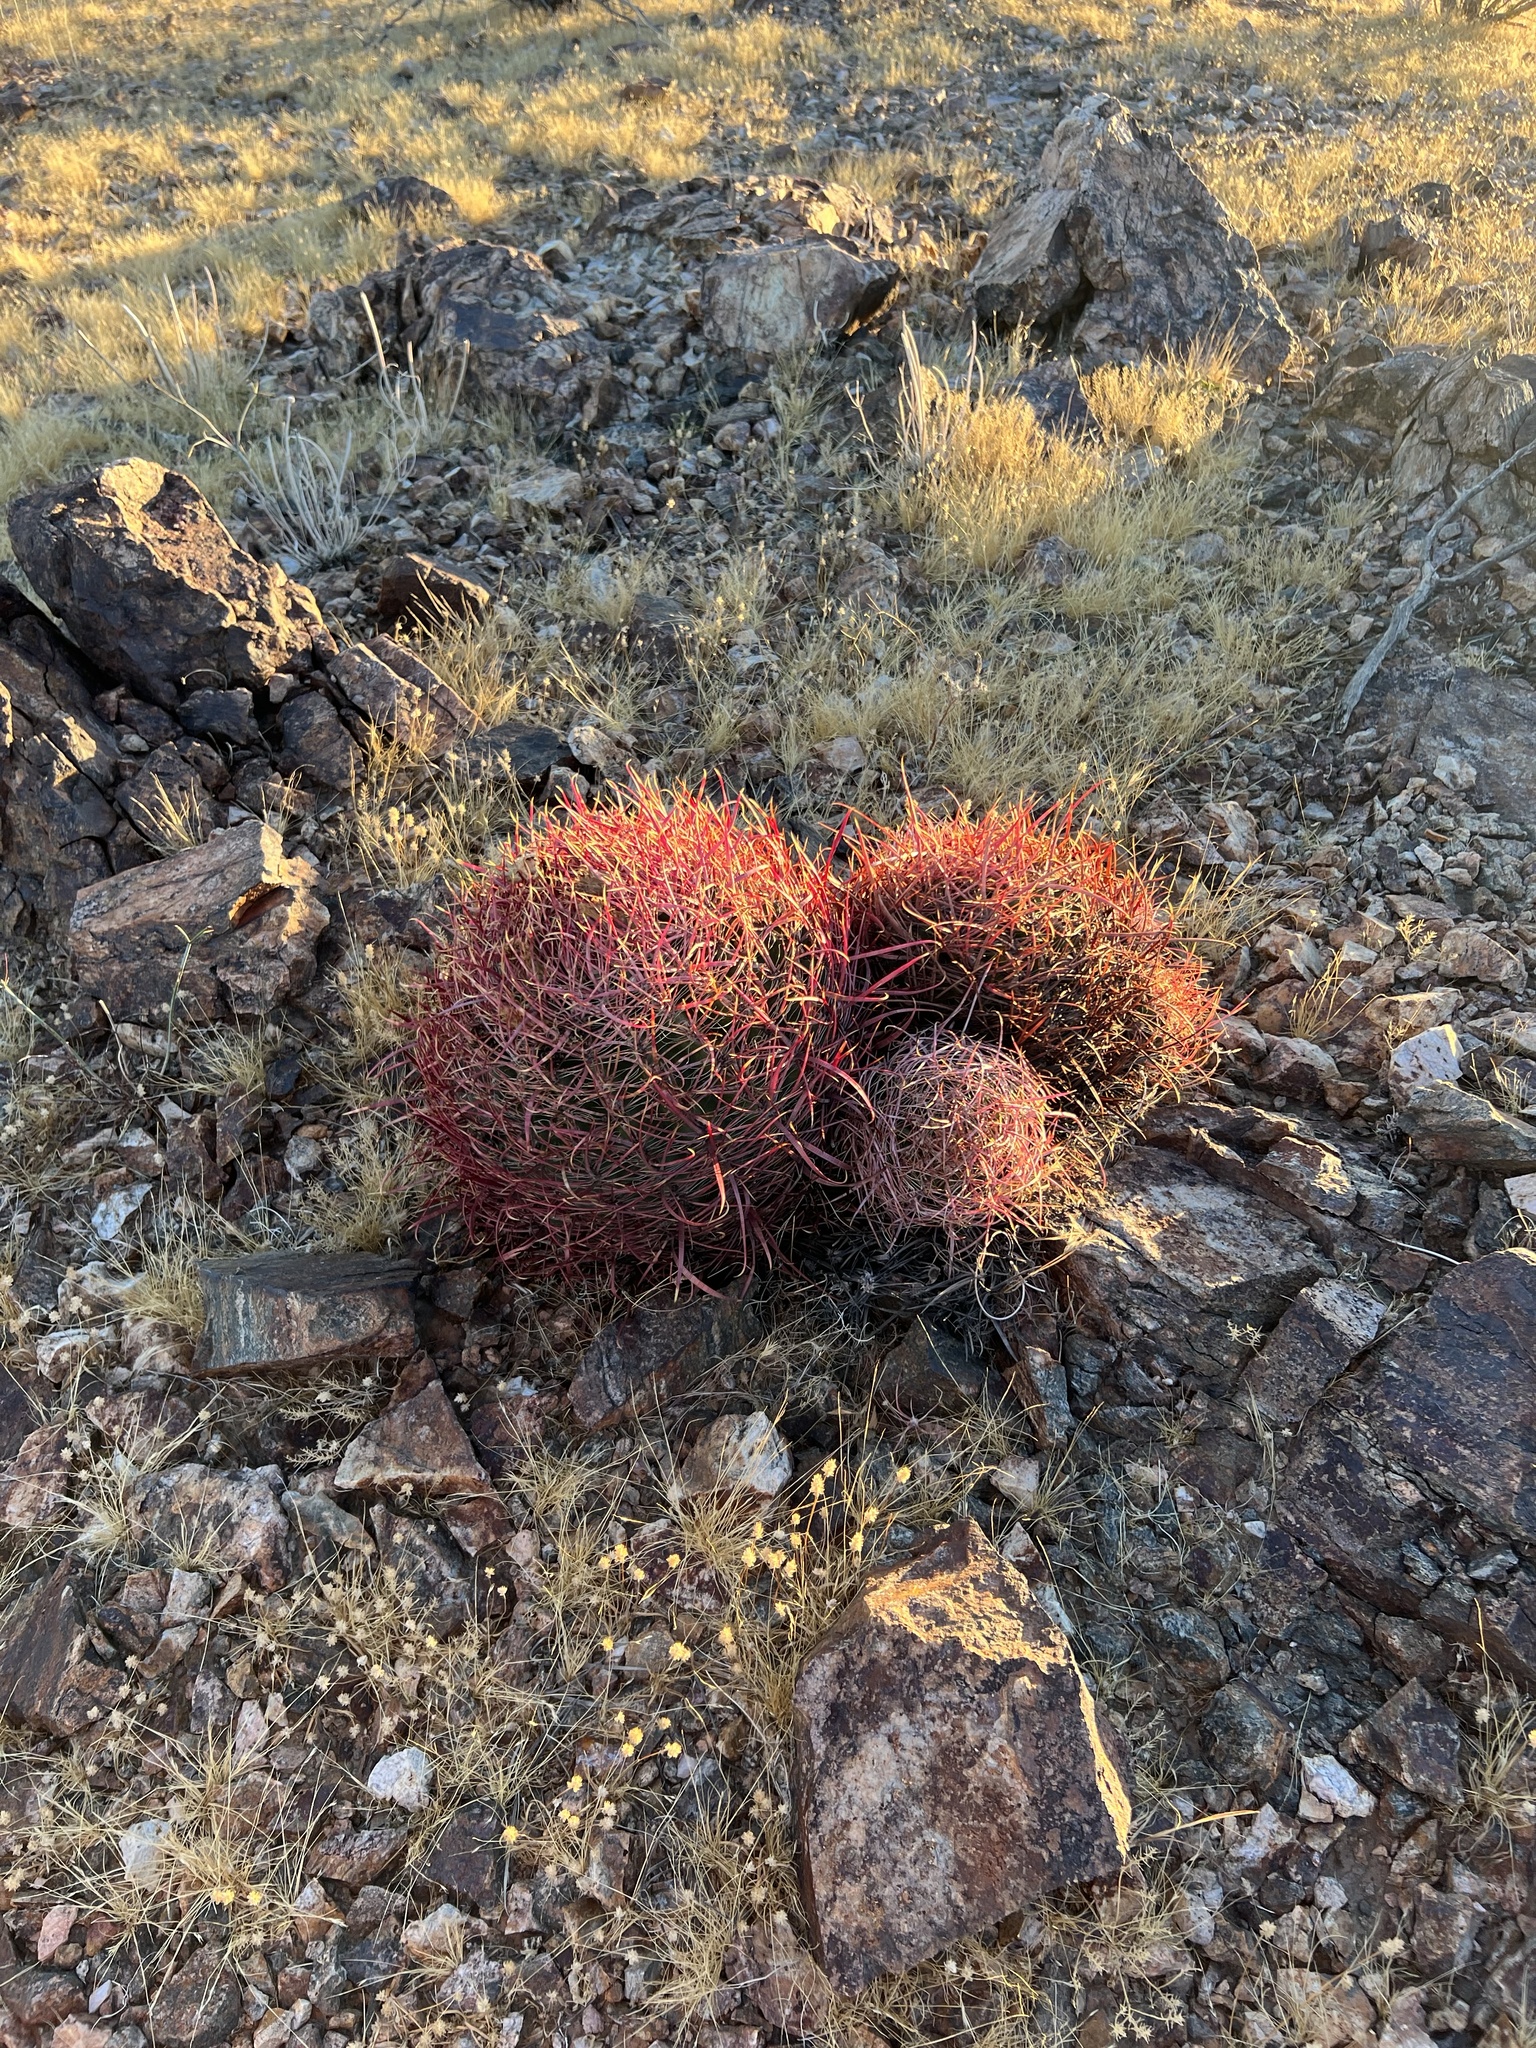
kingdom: Plantae
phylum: Tracheophyta
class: Magnoliopsida
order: Caryophyllales
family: Cactaceae
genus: Ferocactus
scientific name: Ferocactus cylindraceus
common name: California barrel cactus
